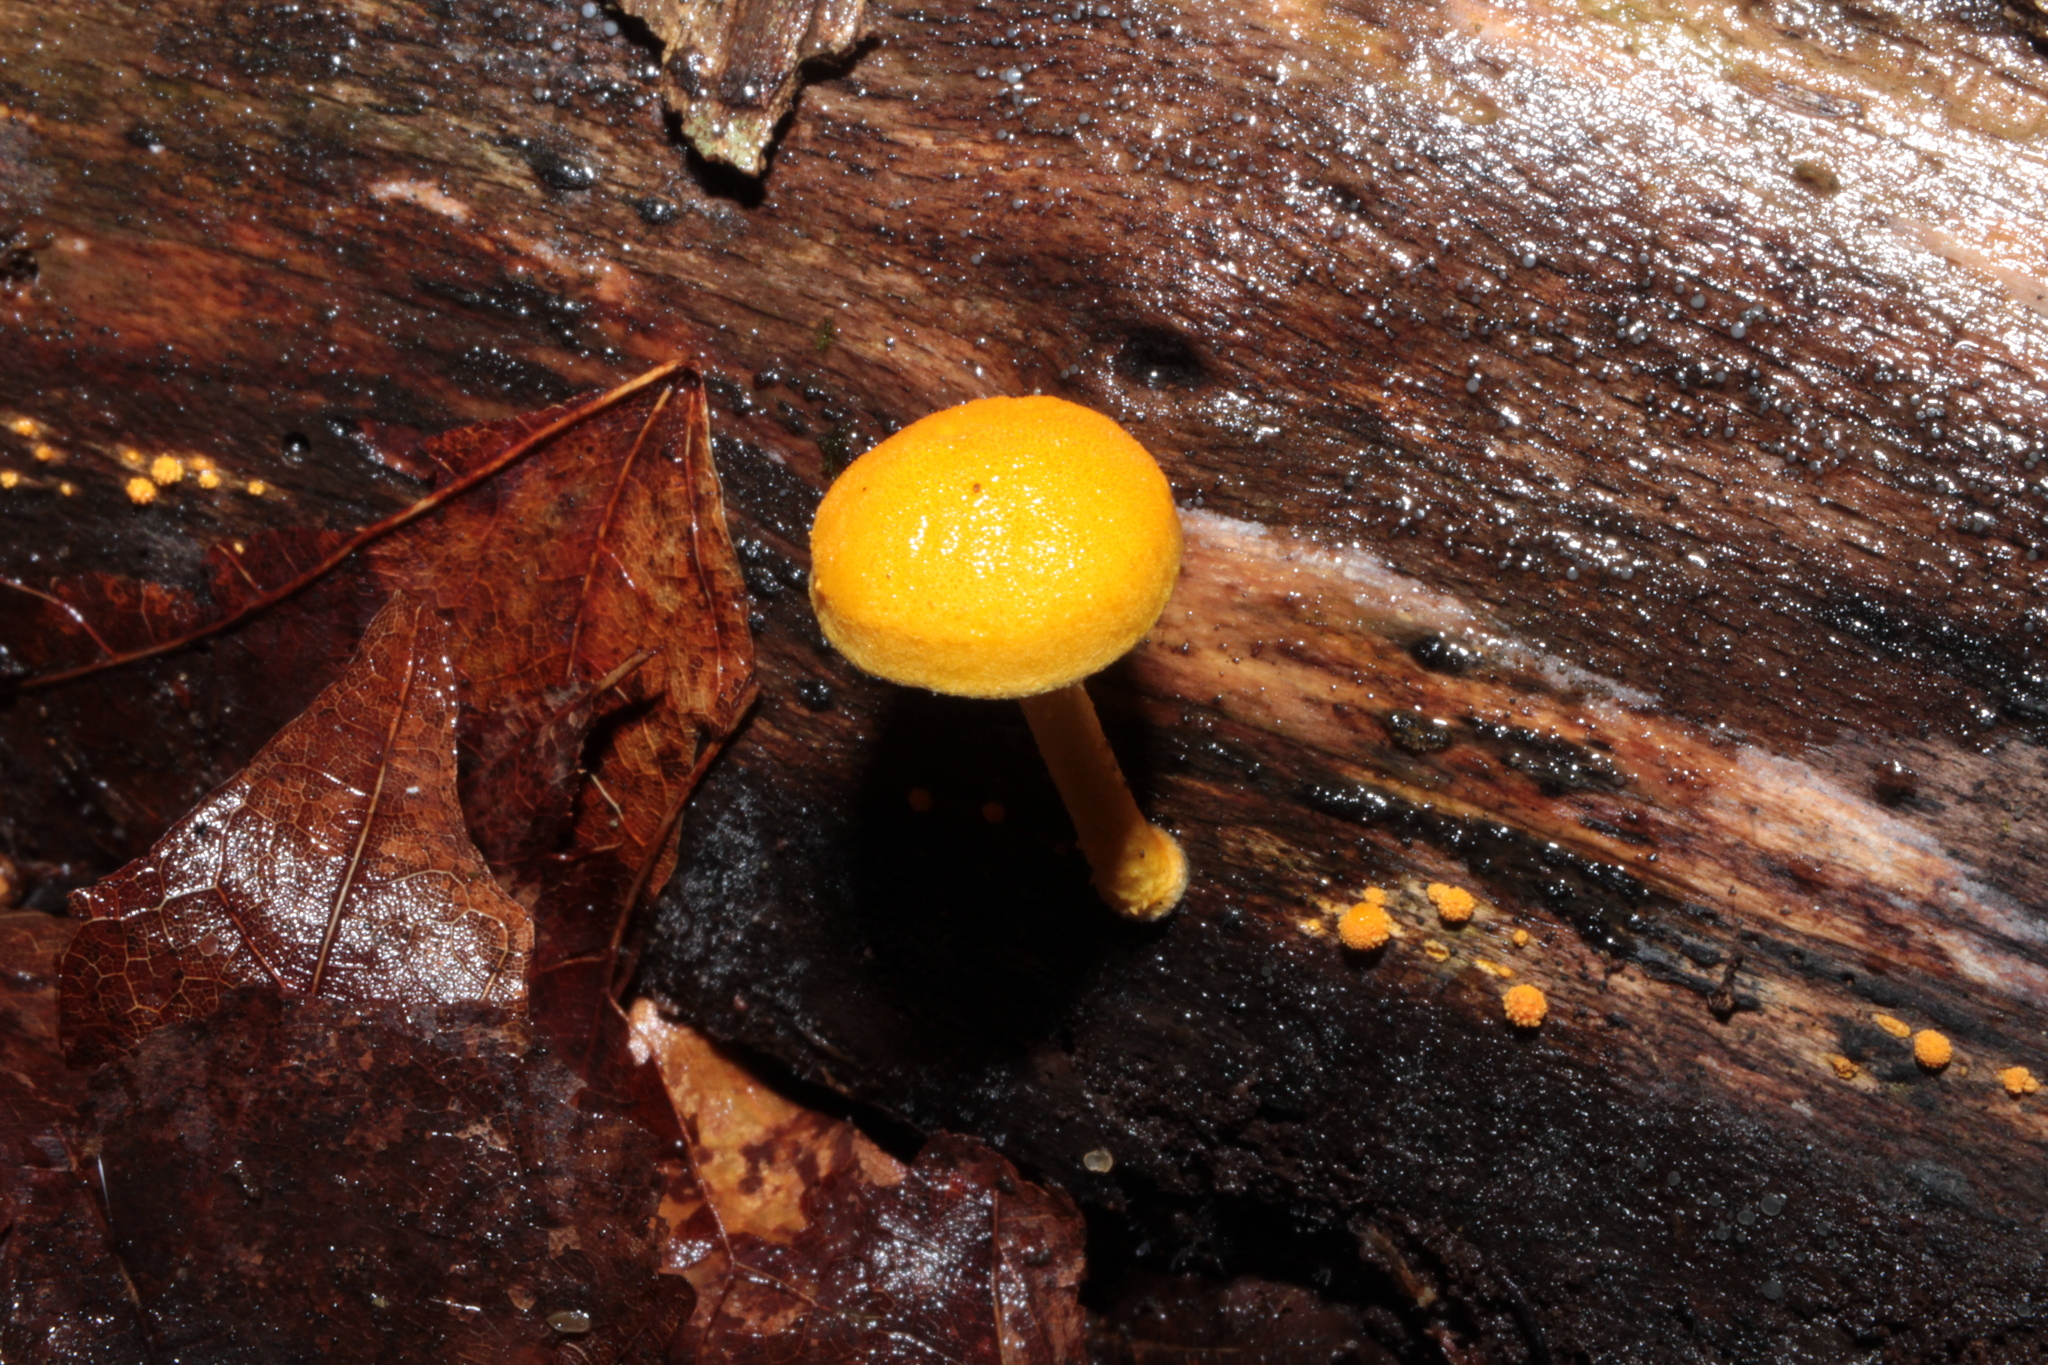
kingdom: Fungi
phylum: Basidiomycota
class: Agaricomycetes
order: Agaricales
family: Physalacriaceae
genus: Cyptotrama
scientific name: Cyptotrama chrysopepla
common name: Golden coincap
